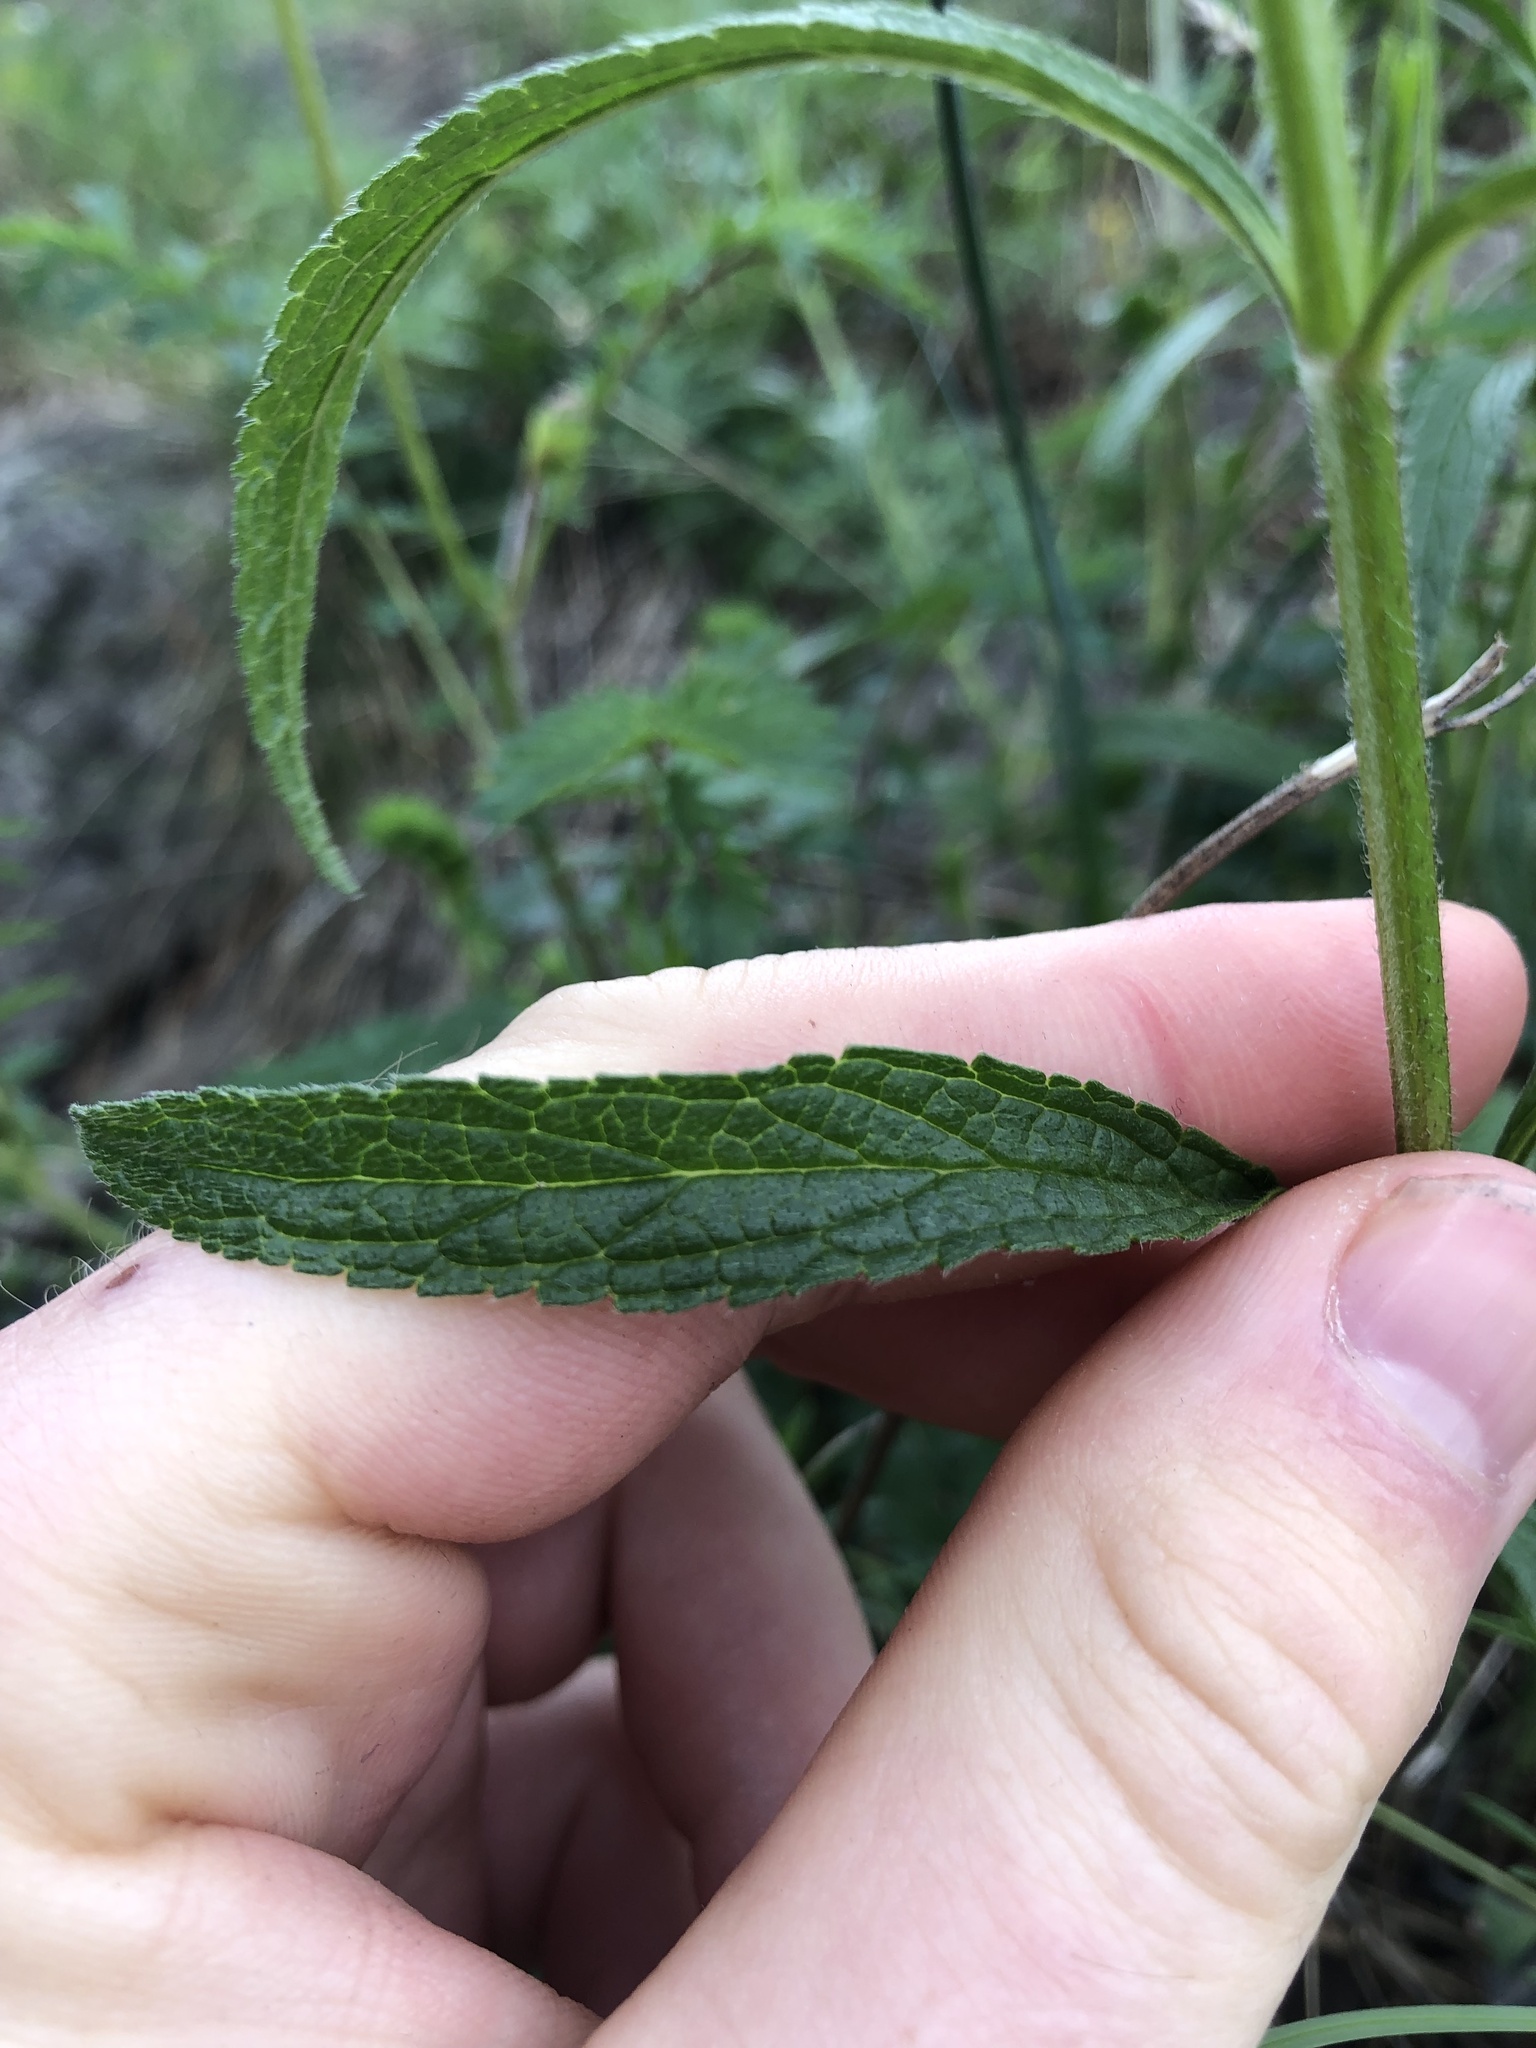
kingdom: Plantae
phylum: Tracheophyta
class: Magnoliopsida
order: Lamiales
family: Lamiaceae
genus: Stachys
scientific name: Stachys recta
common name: Perennial yellow-woundwort
